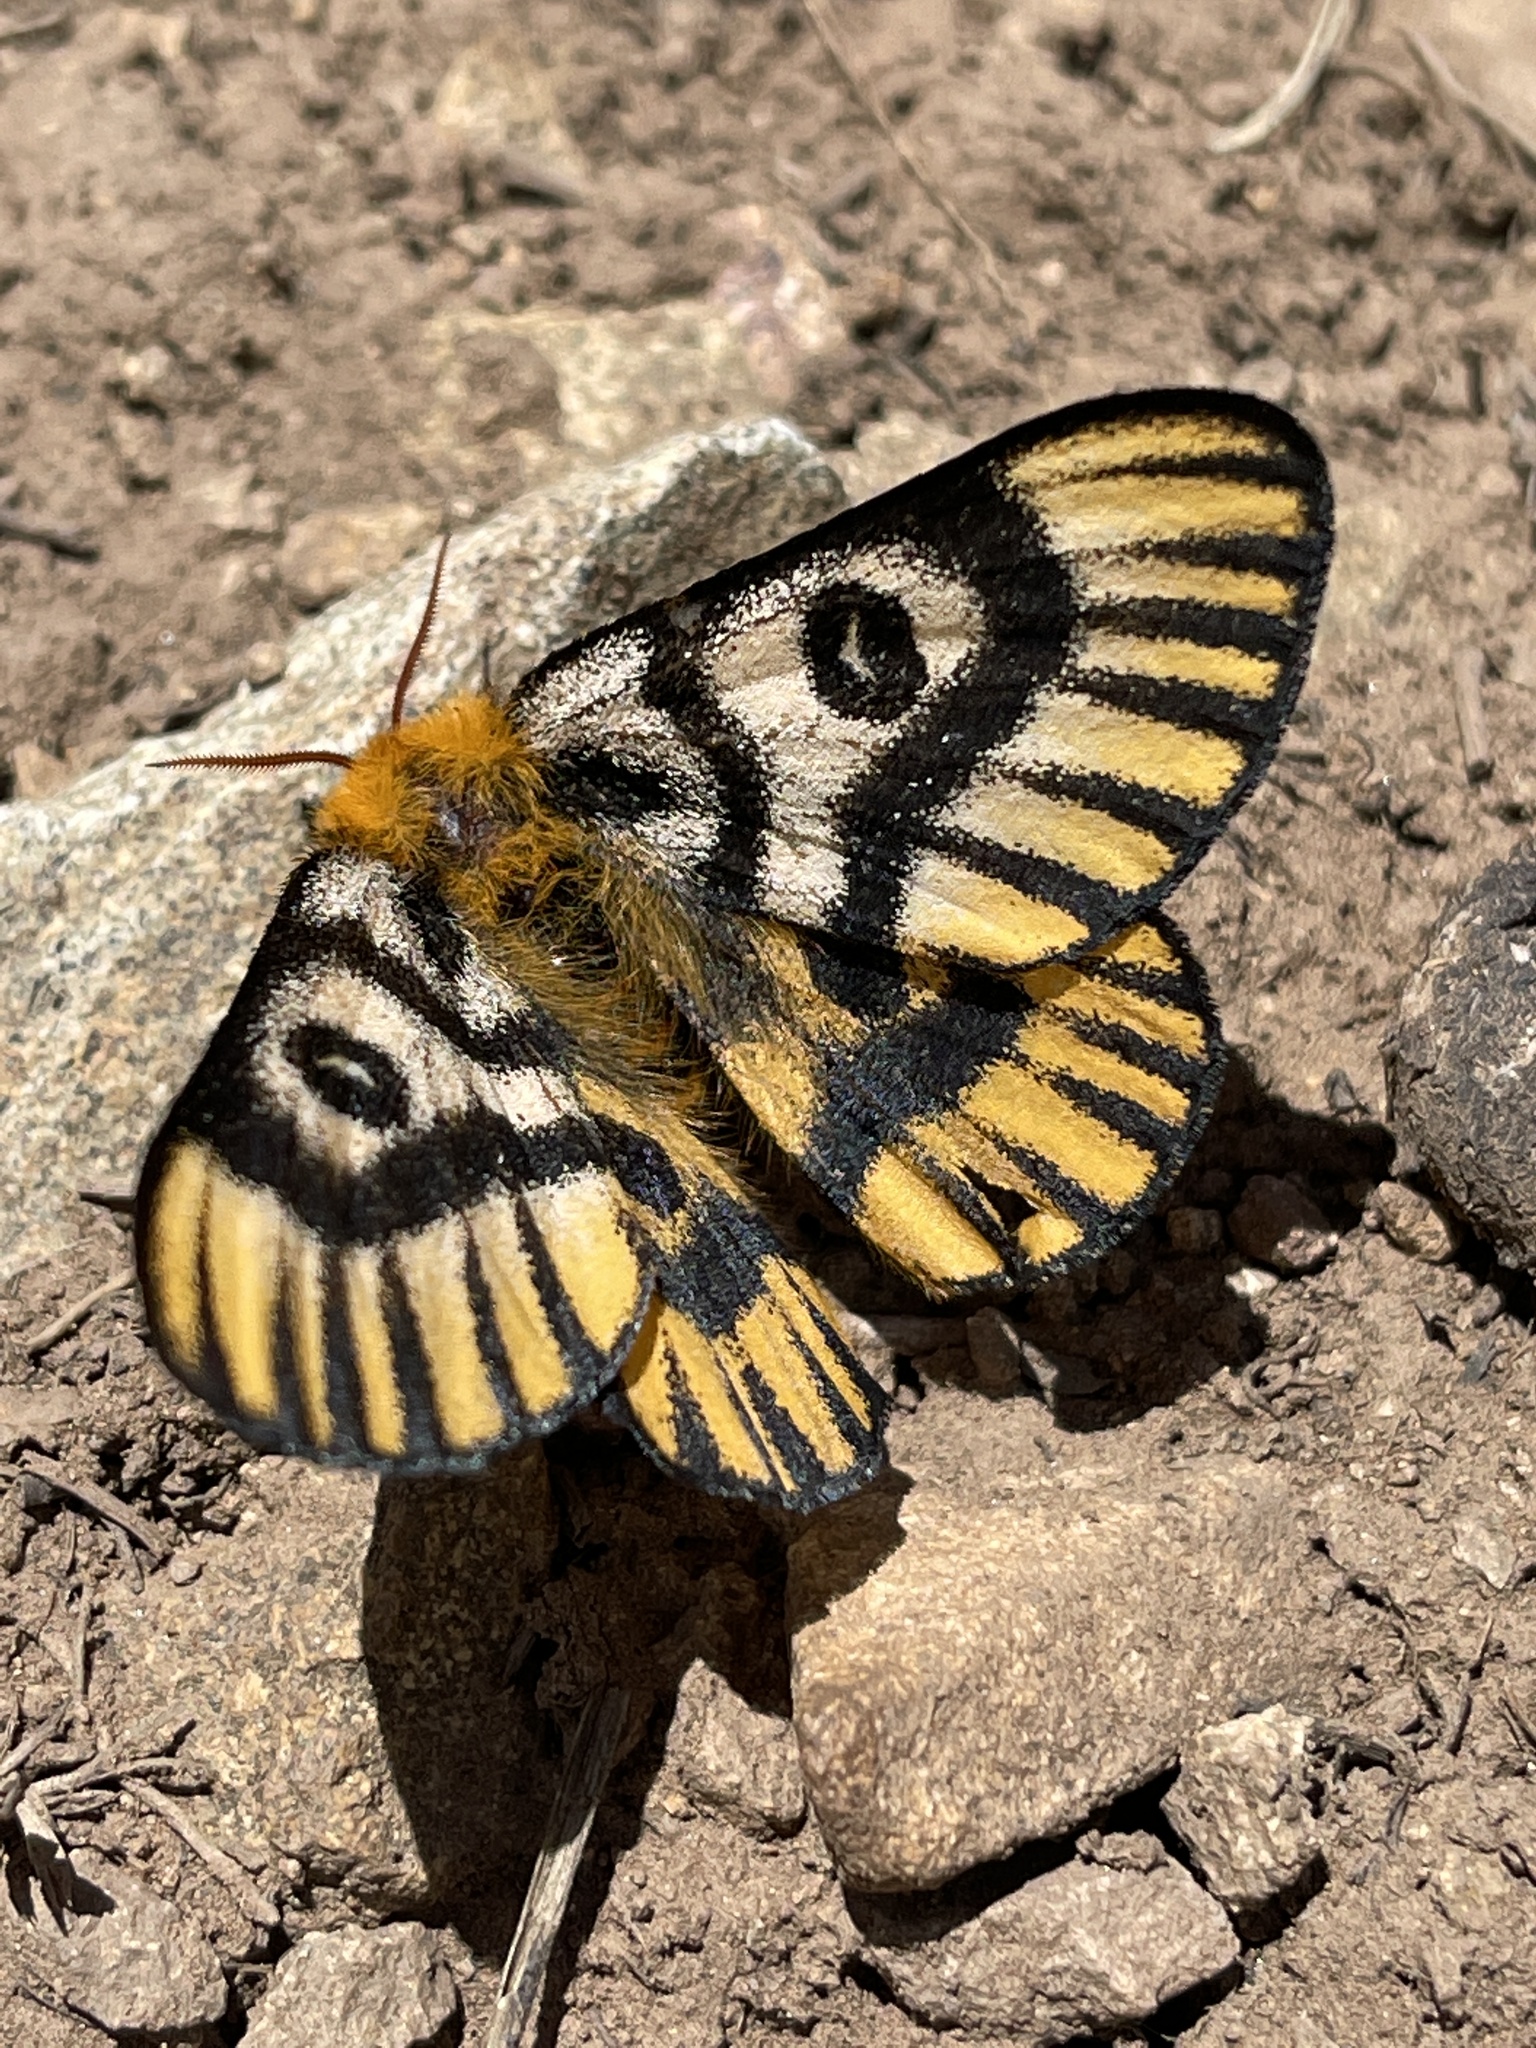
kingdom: Animalia
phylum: Arthropoda
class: Insecta
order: Lepidoptera
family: Saturniidae
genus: Hemileuca
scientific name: Hemileuca nutalli
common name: Nuttall's sheepmoth
